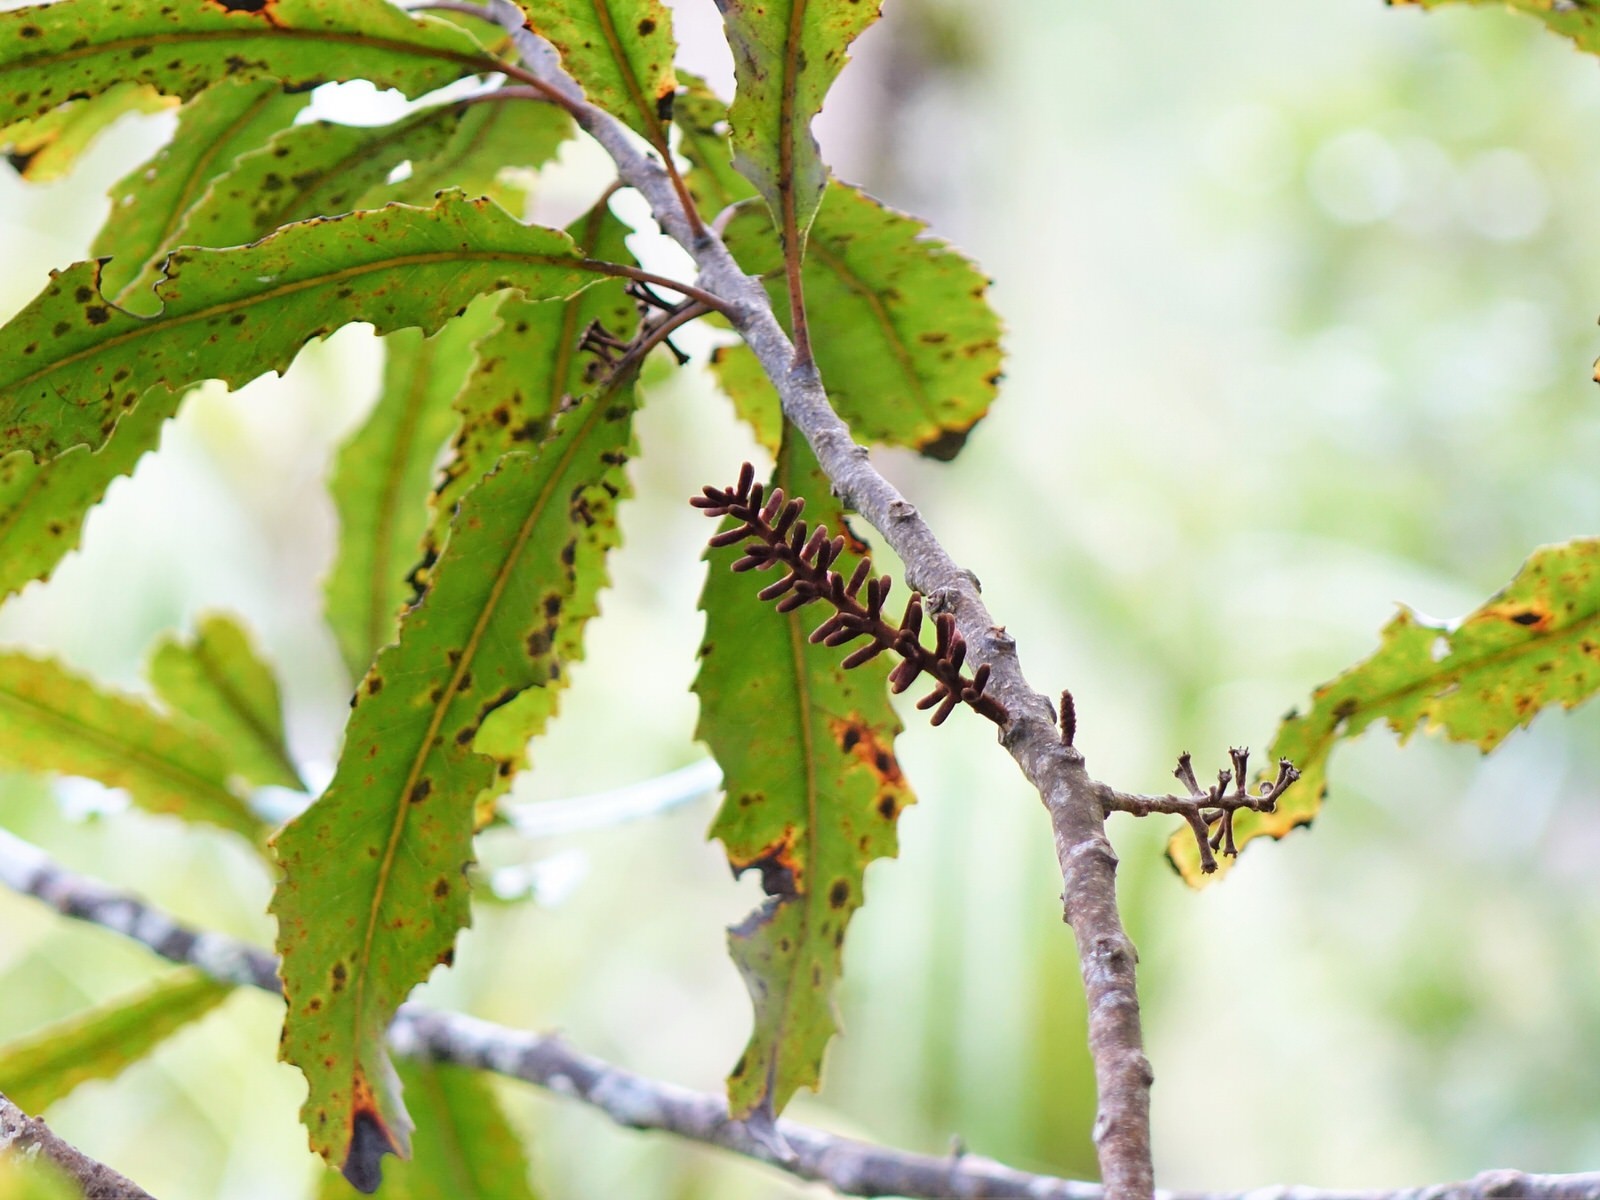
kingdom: Plantae
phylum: Tracheophyta
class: Magnoliopsida
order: Proteales
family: Proteaceae
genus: Knightia
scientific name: Knightia excelsa
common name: New zealand-honeysuckle
